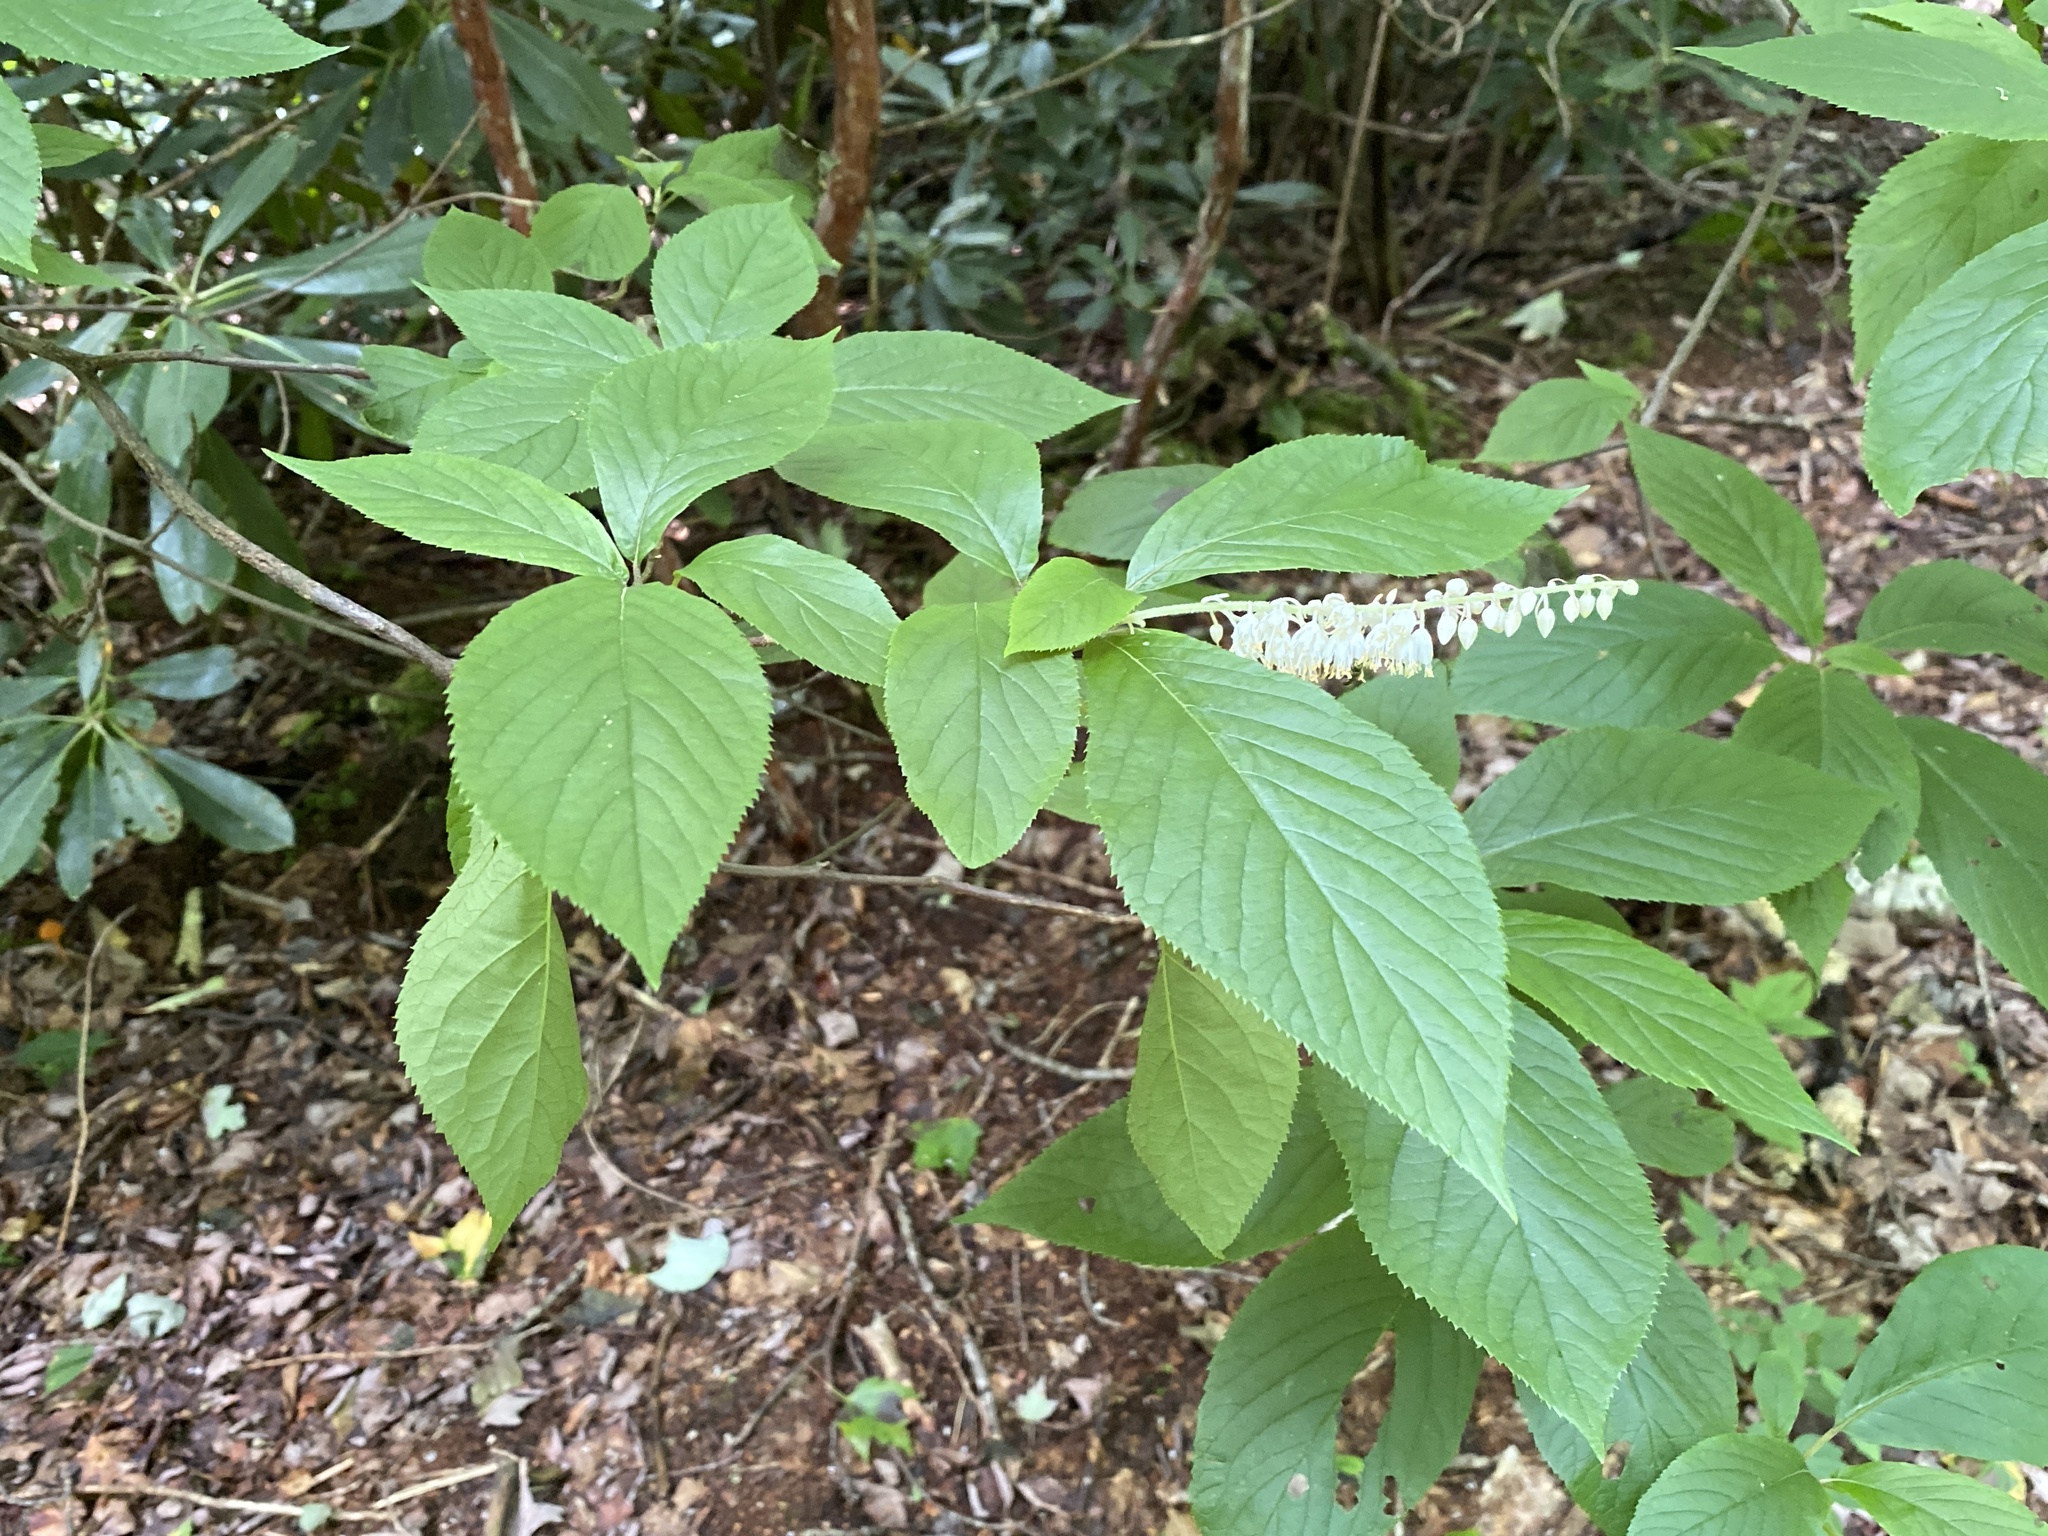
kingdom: Plantae
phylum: Tracheophyta
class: Magnoliopsida
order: Ericales
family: Clethraceae
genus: Clethra
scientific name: Clethra acuminata
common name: Mountain sweet pepperbush
